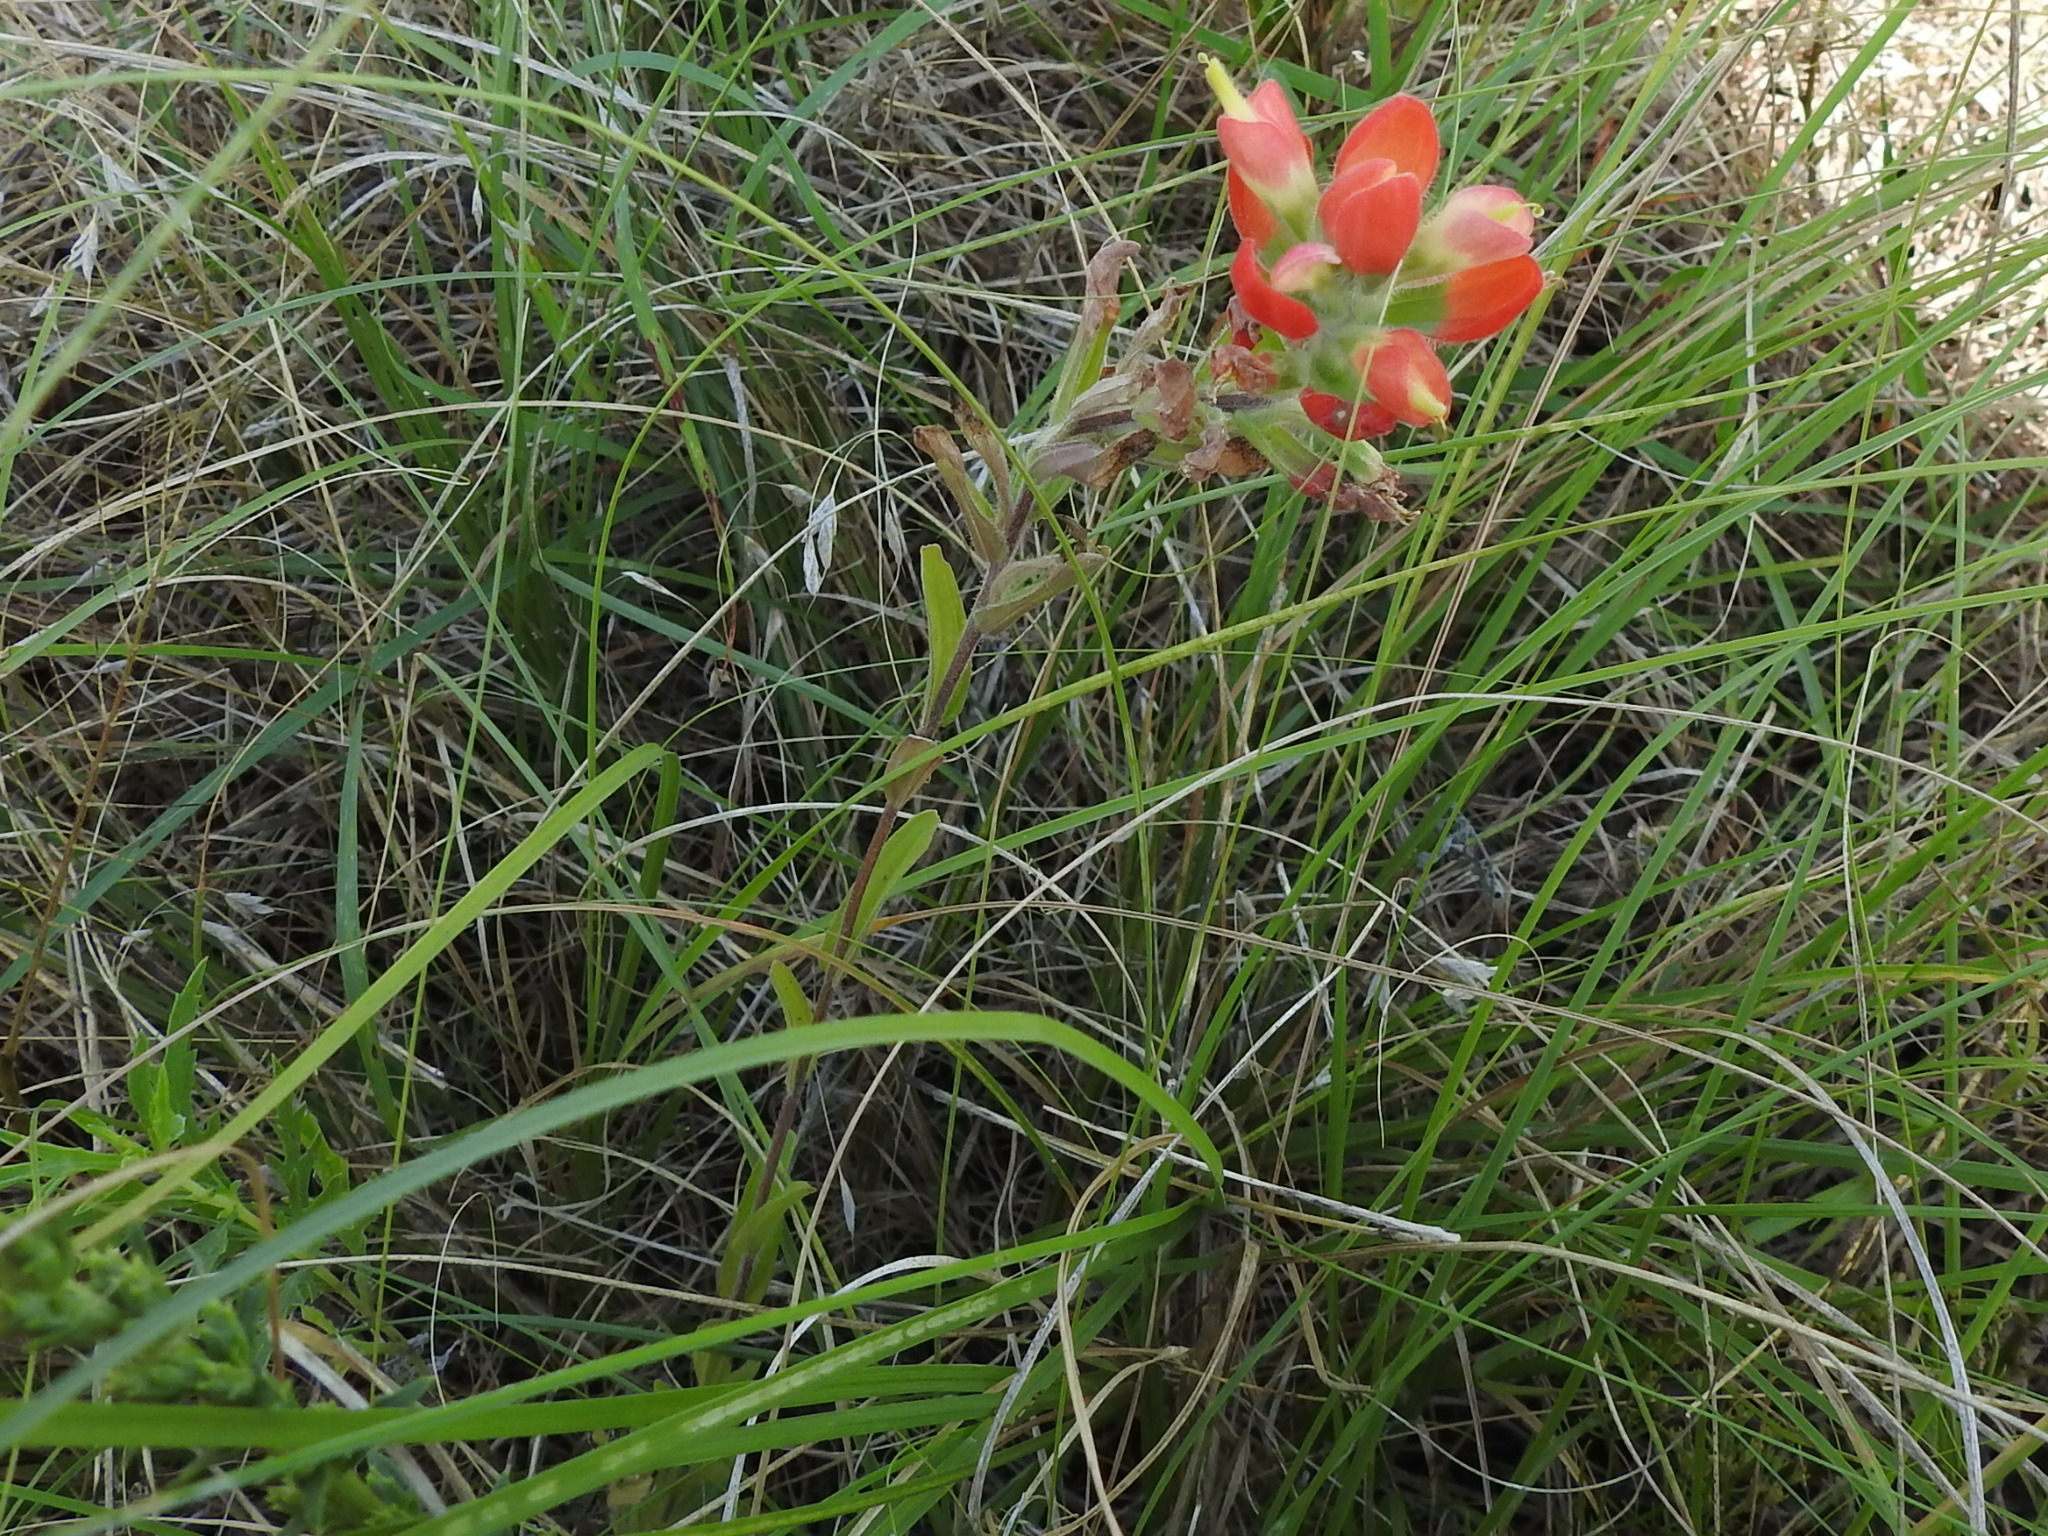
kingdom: Plantae
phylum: Tracheophyta
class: Magnoliopsida
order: Lamiales
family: Orobanchaceae
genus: Castilleja
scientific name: Castilleja indivisa
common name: Texas paintbrush
